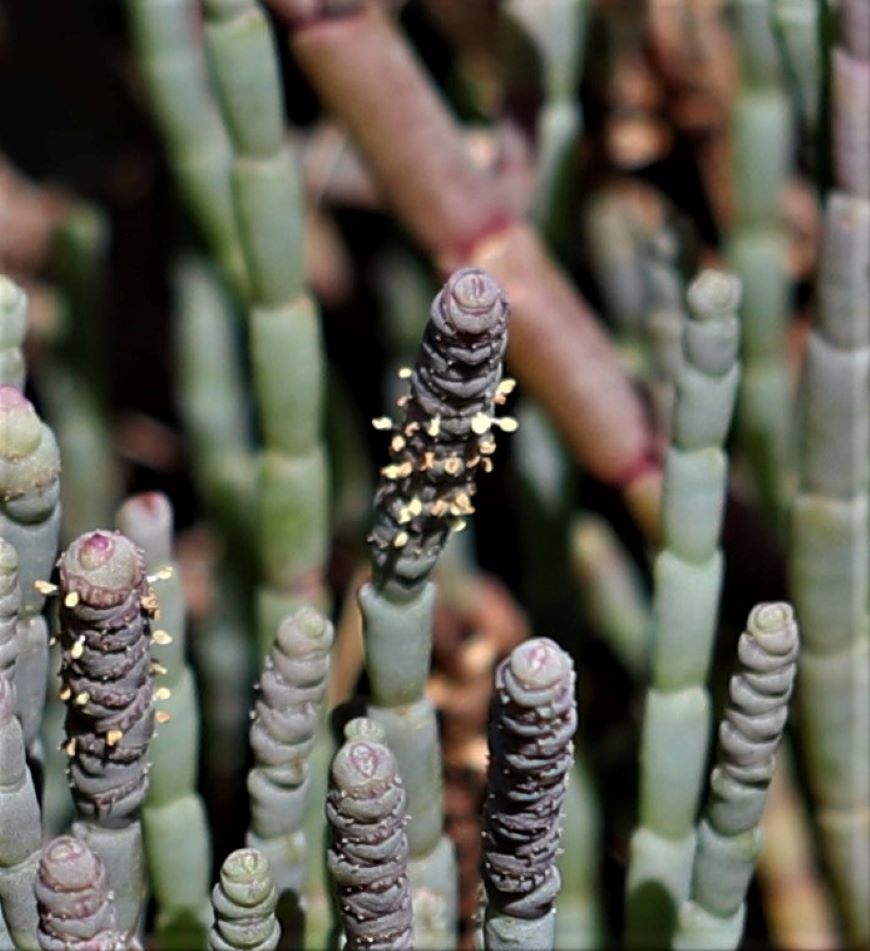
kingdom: Plantae
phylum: Tracheophyta
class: Magnoliopsida
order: Caryophyllales
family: Amaranthaceae
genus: Salicornia
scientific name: Salicornia decumbens
